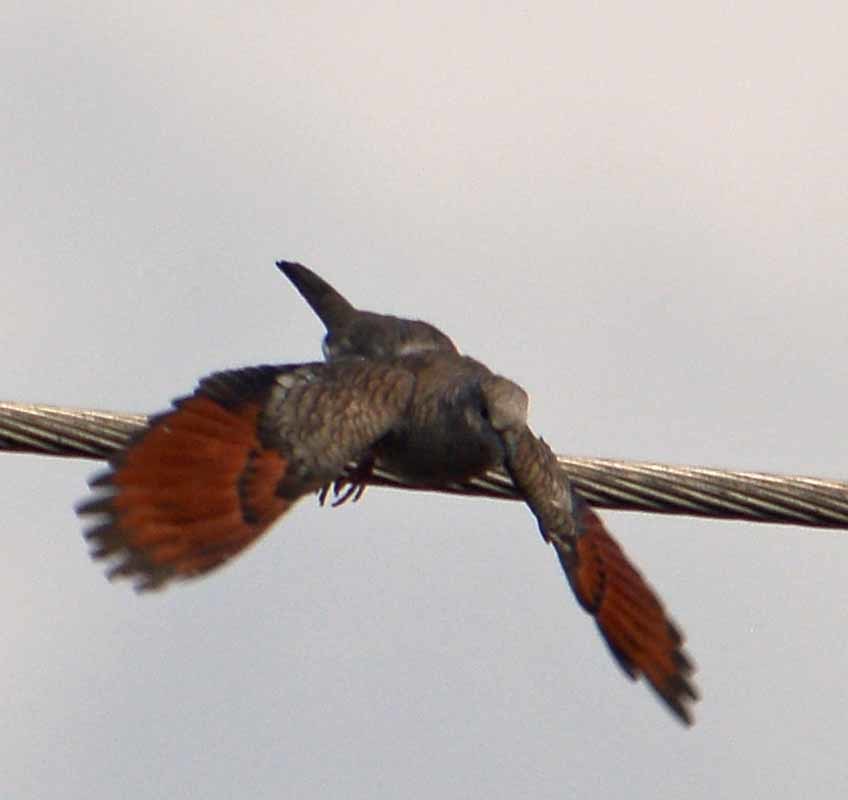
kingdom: Animalia
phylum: Chordata
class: Aves
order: Columbiformes
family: Columbidae
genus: Columbina
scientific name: Columbina inca
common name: Inca dove
